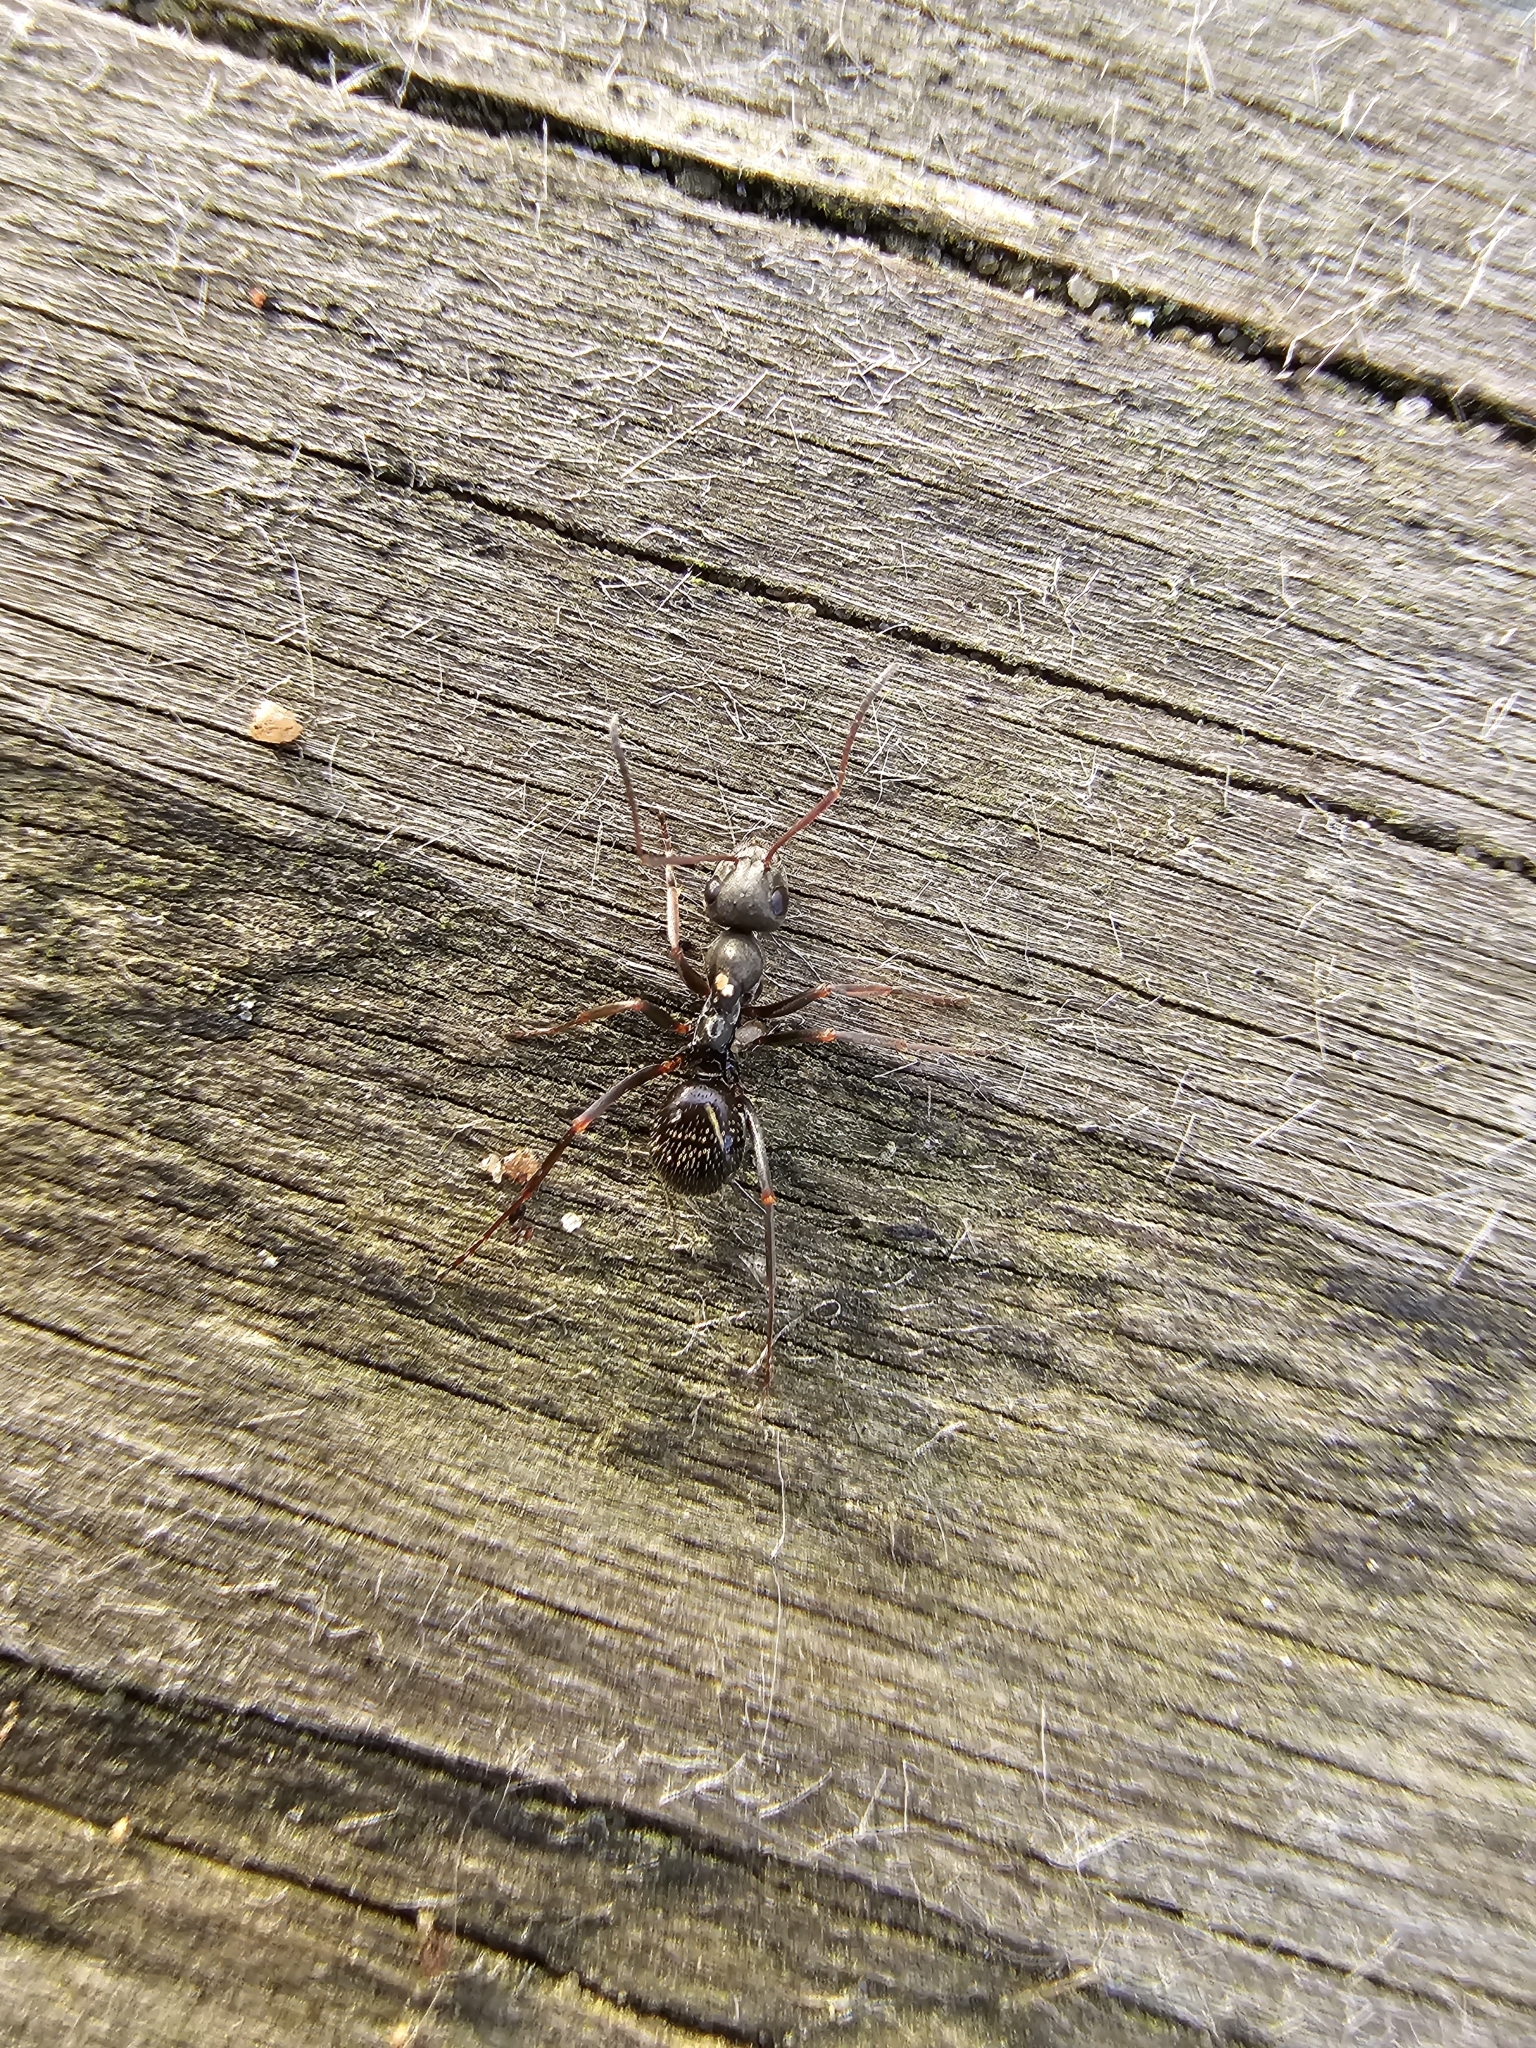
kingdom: Animalia
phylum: Arthropoda
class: Insecta
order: Hymenoptera
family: Formicidae
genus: Formica
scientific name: Formica cinerea
